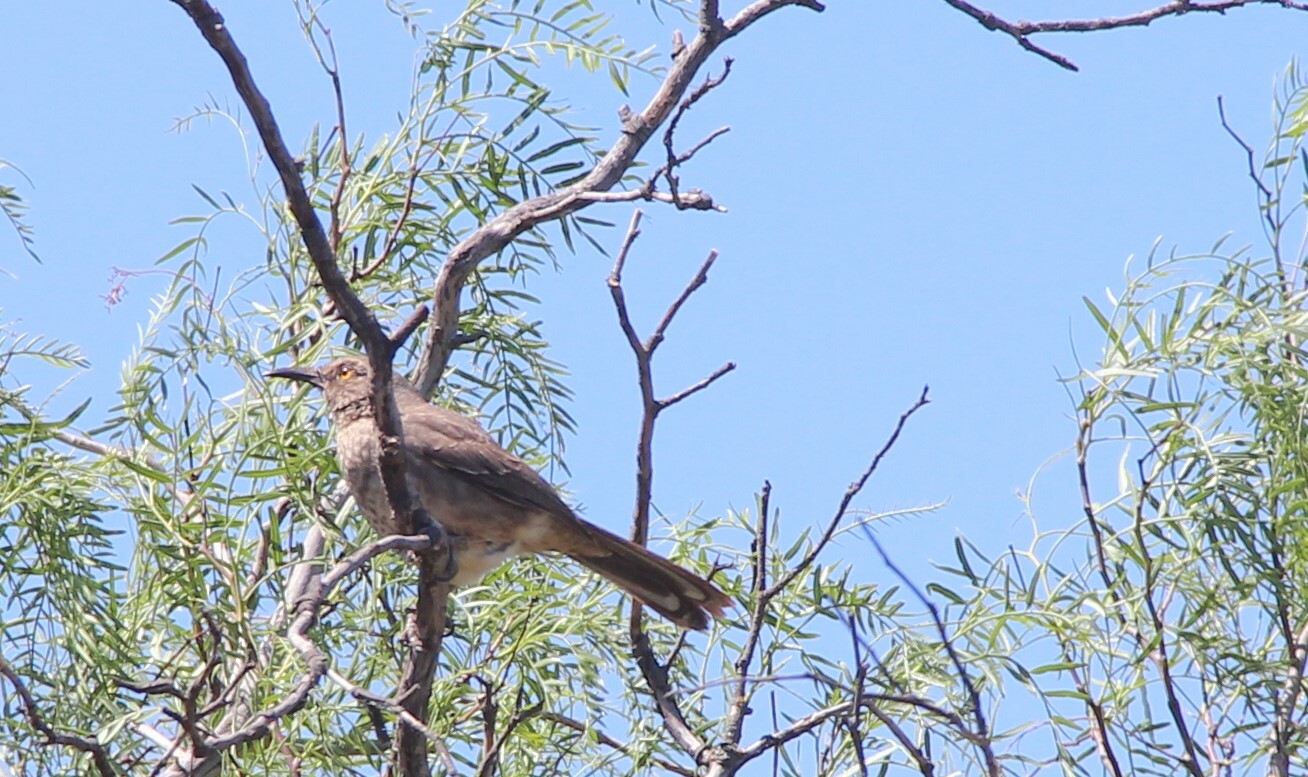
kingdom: Animalia
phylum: Chordata
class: Aves
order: Passeriformes
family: Mimidae
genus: Toxostoma
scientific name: Toxostoma curvirostre
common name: Curve-billed thrasher
